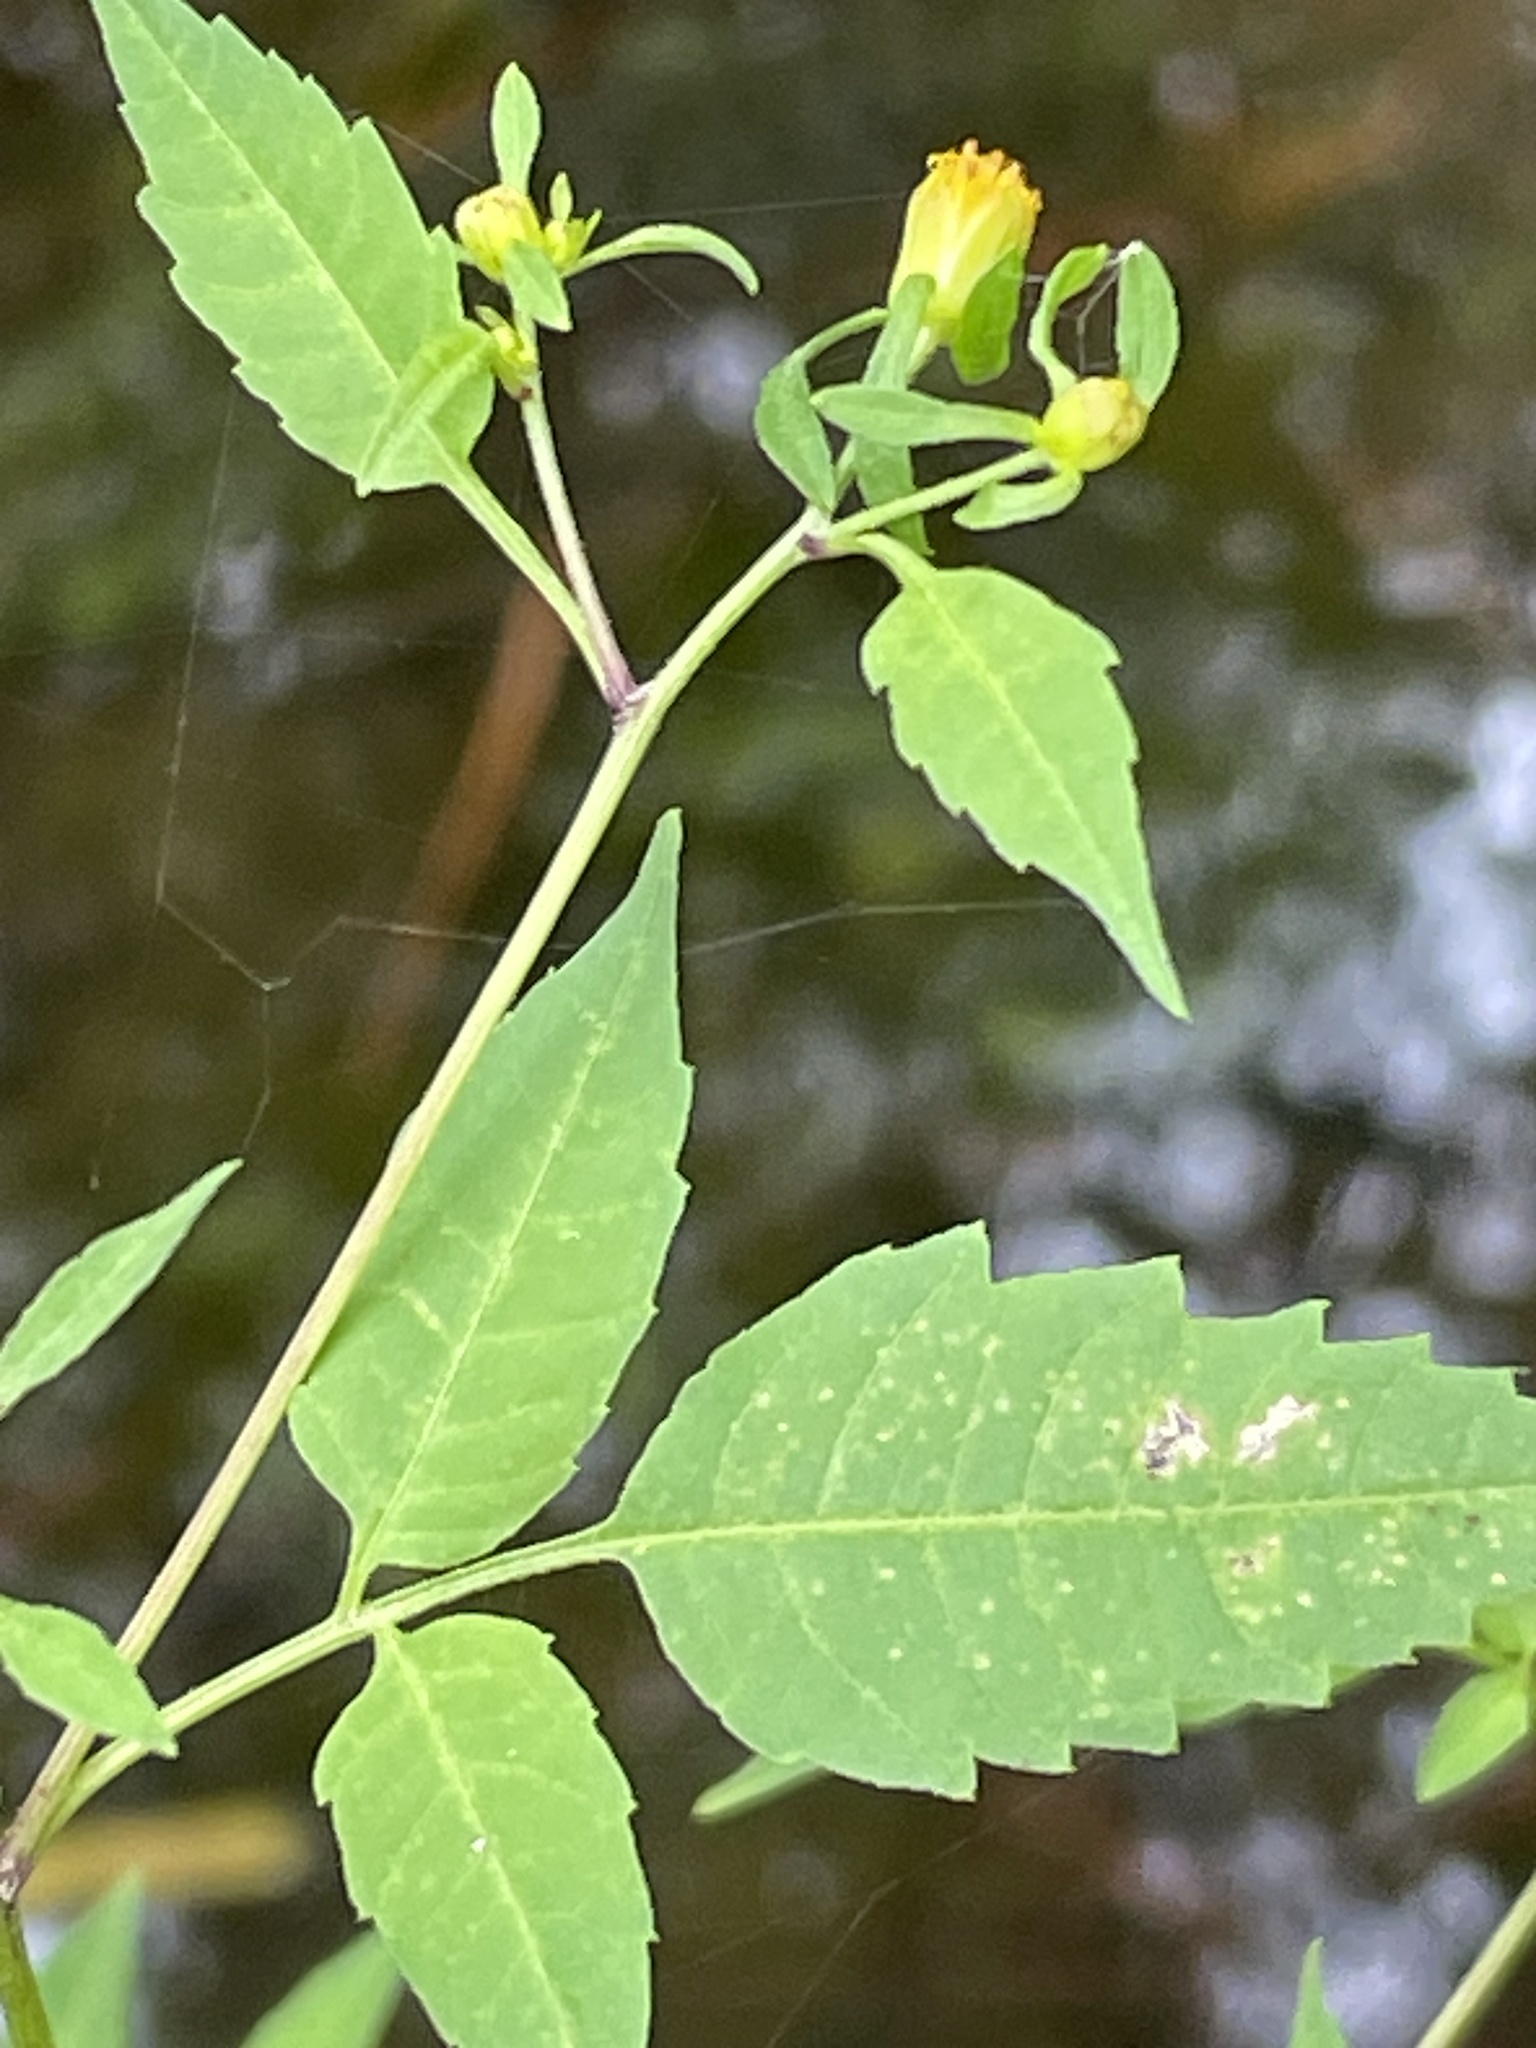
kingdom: Plantae
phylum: Tracheophyta
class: Magnoliopsida
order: Asterales
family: Asteraceae
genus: Bidens
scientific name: Bidens discoidea
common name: Discoide beggarticks
